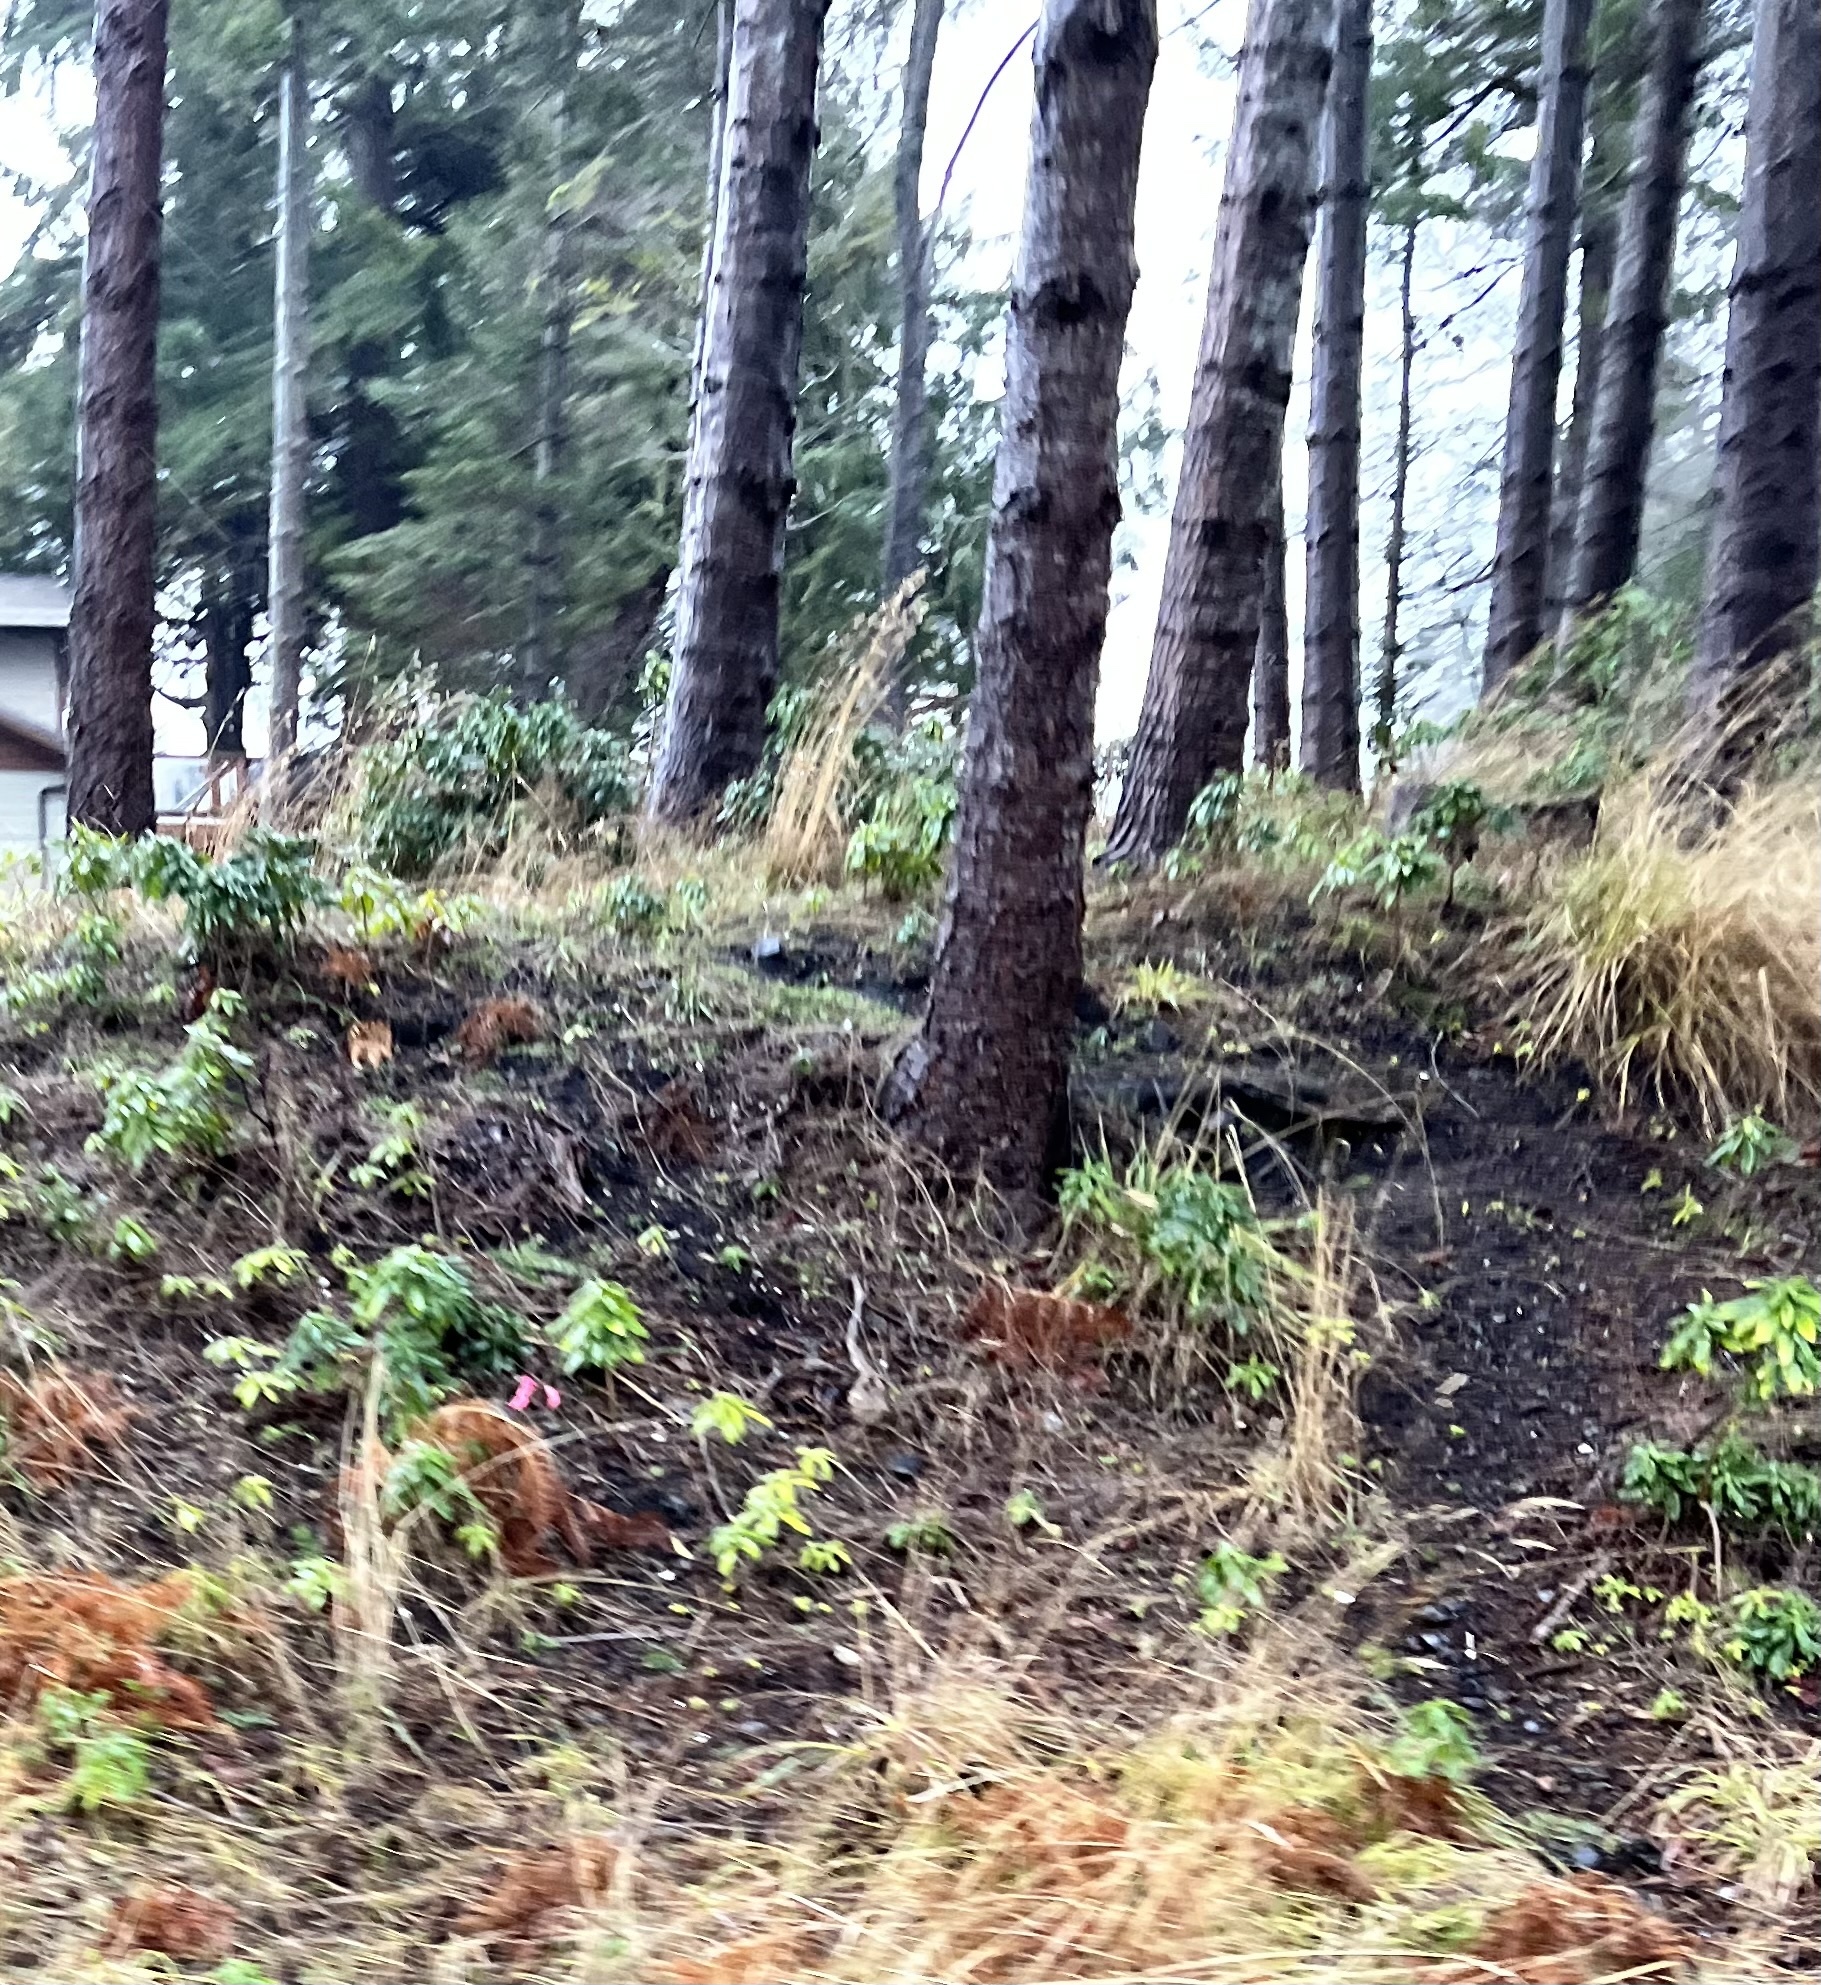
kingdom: Plantae
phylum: Tracheophyta
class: Magnoliopsida
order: Malvales
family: Thymelaeaceae
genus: Daphne
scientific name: Daphne laureola
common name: Spurge-laurel
